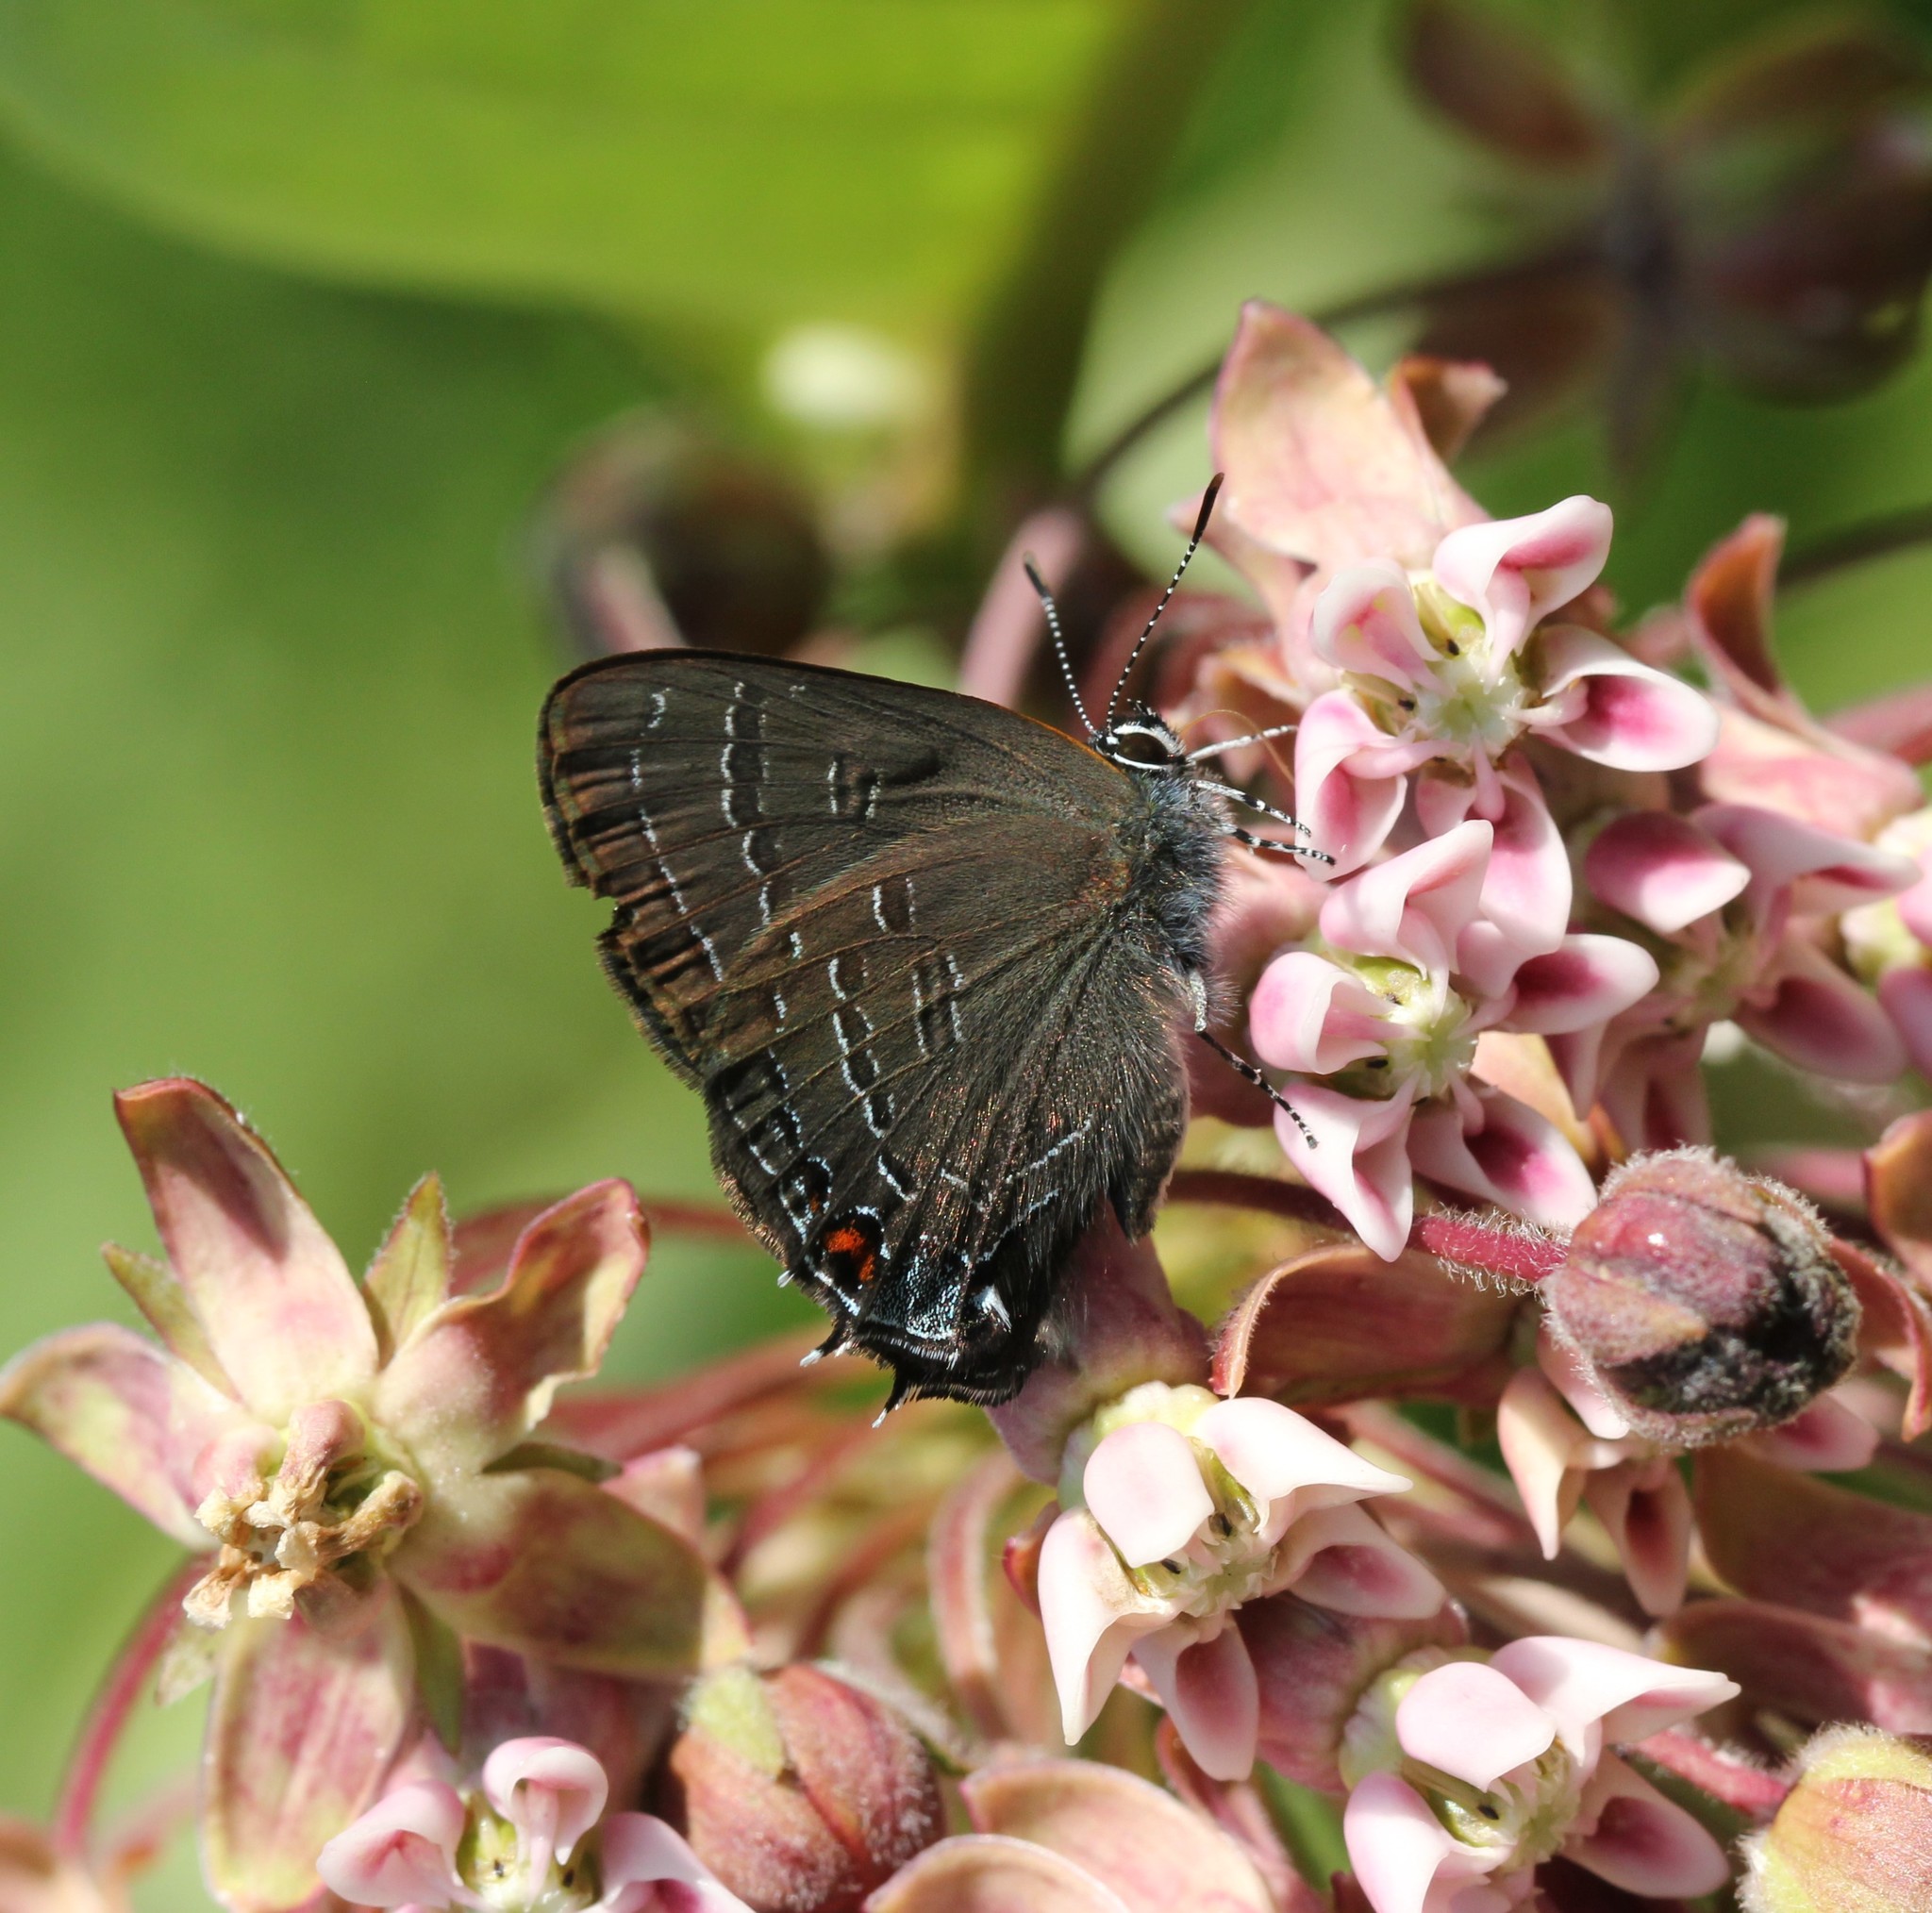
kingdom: Animalia
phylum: Arthropoda
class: Insecta
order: Lepidoptera
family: Lycaenidae
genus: Satyrium
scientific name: Satyrium calanus
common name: Banded hairstreak
